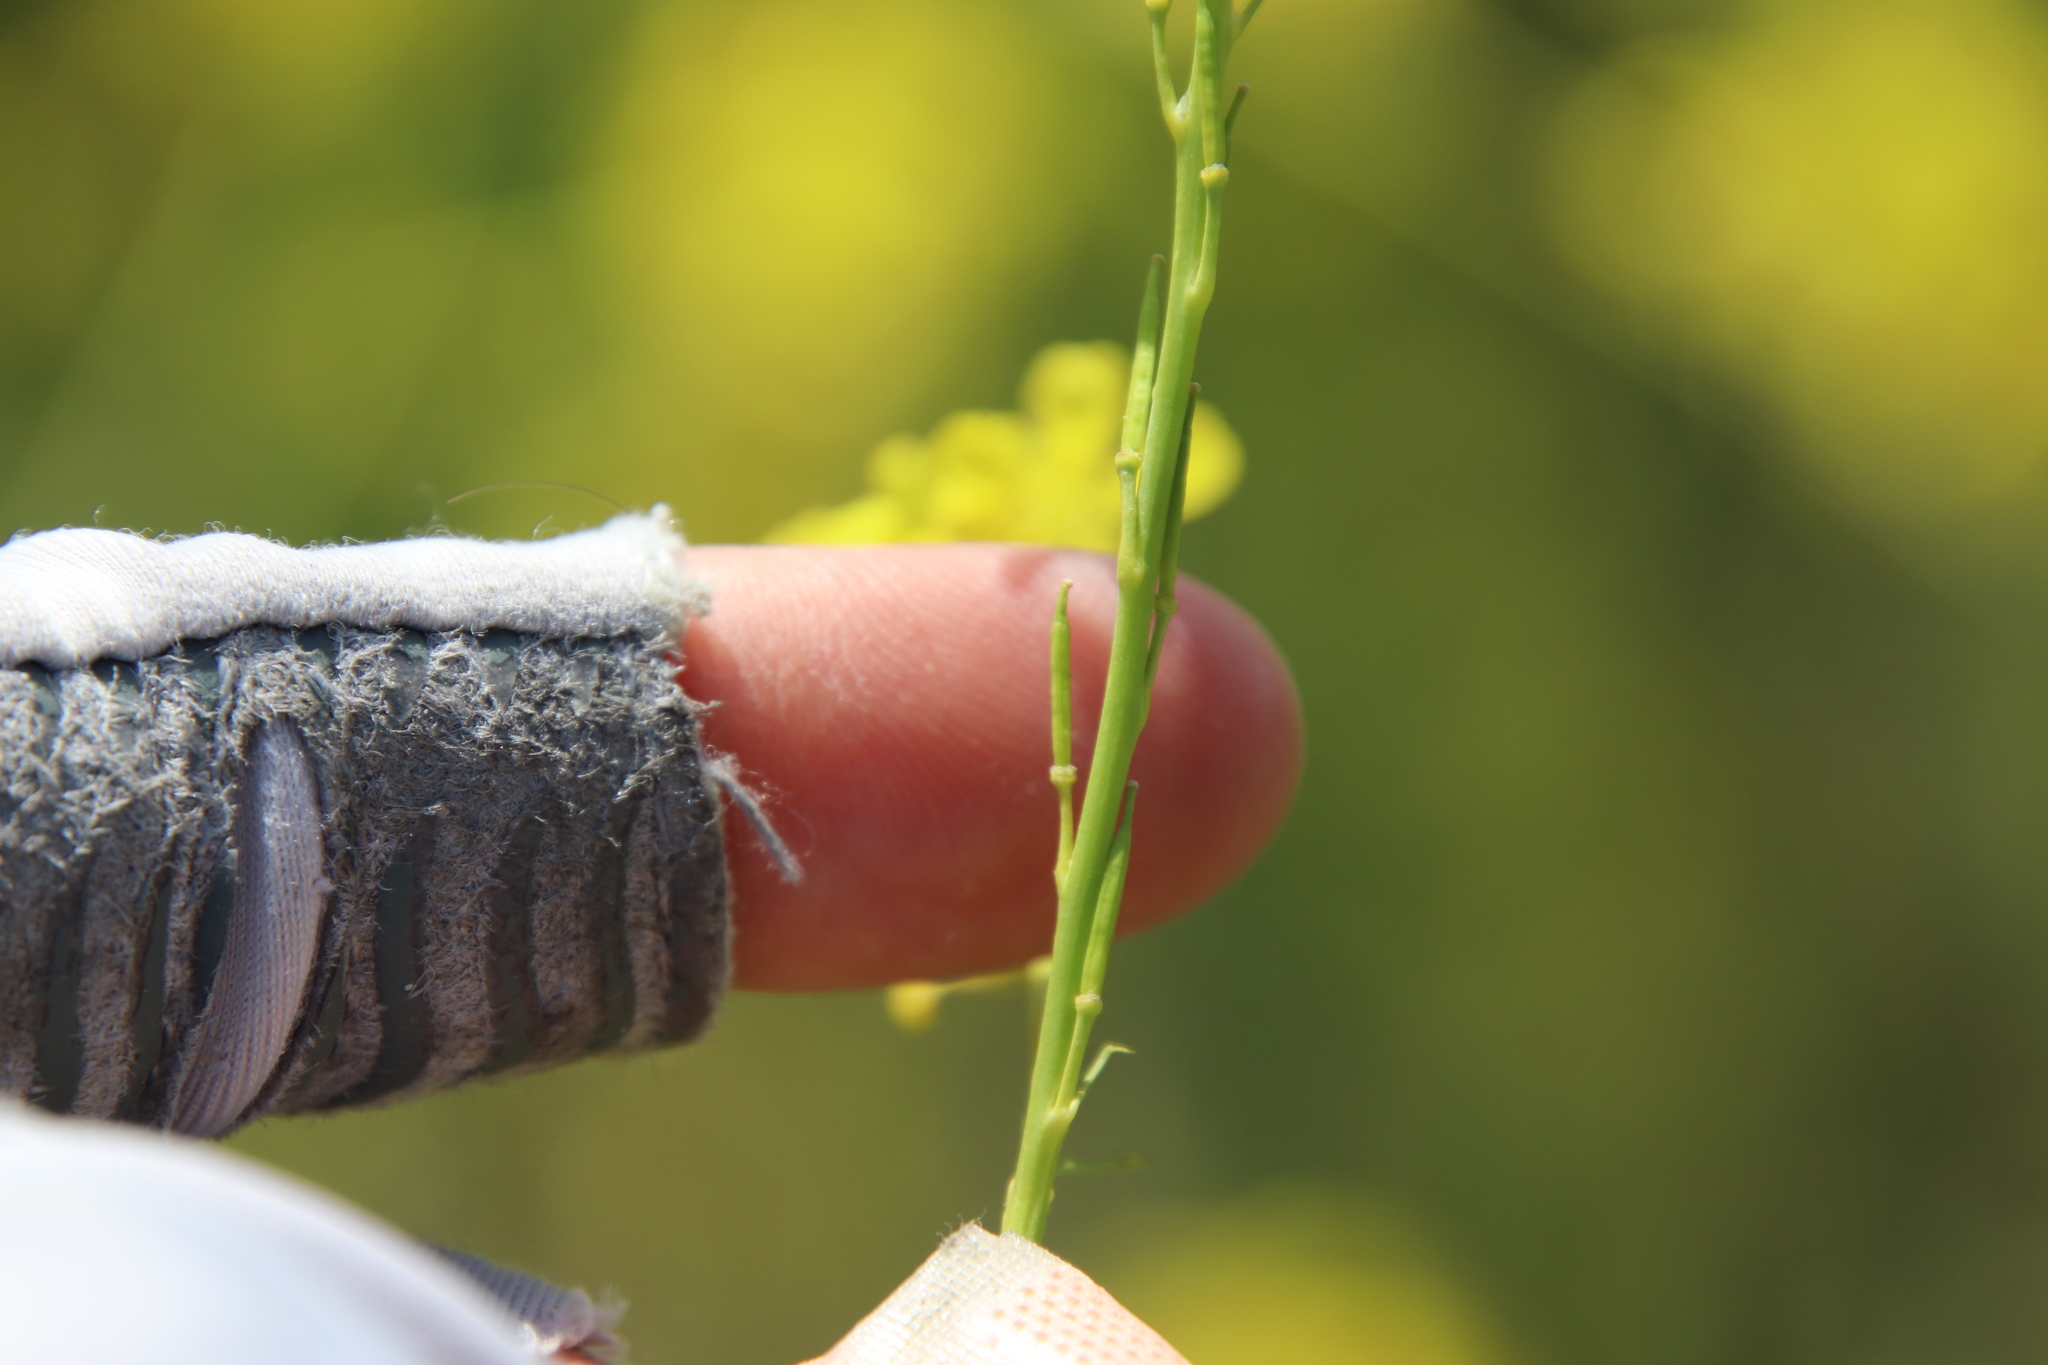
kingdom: Plantae
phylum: Tracheophyta
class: Magnoliopsida
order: Brassicales
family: Brassicaceae
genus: Brassica
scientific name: Brassica nigra
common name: Black mustard
